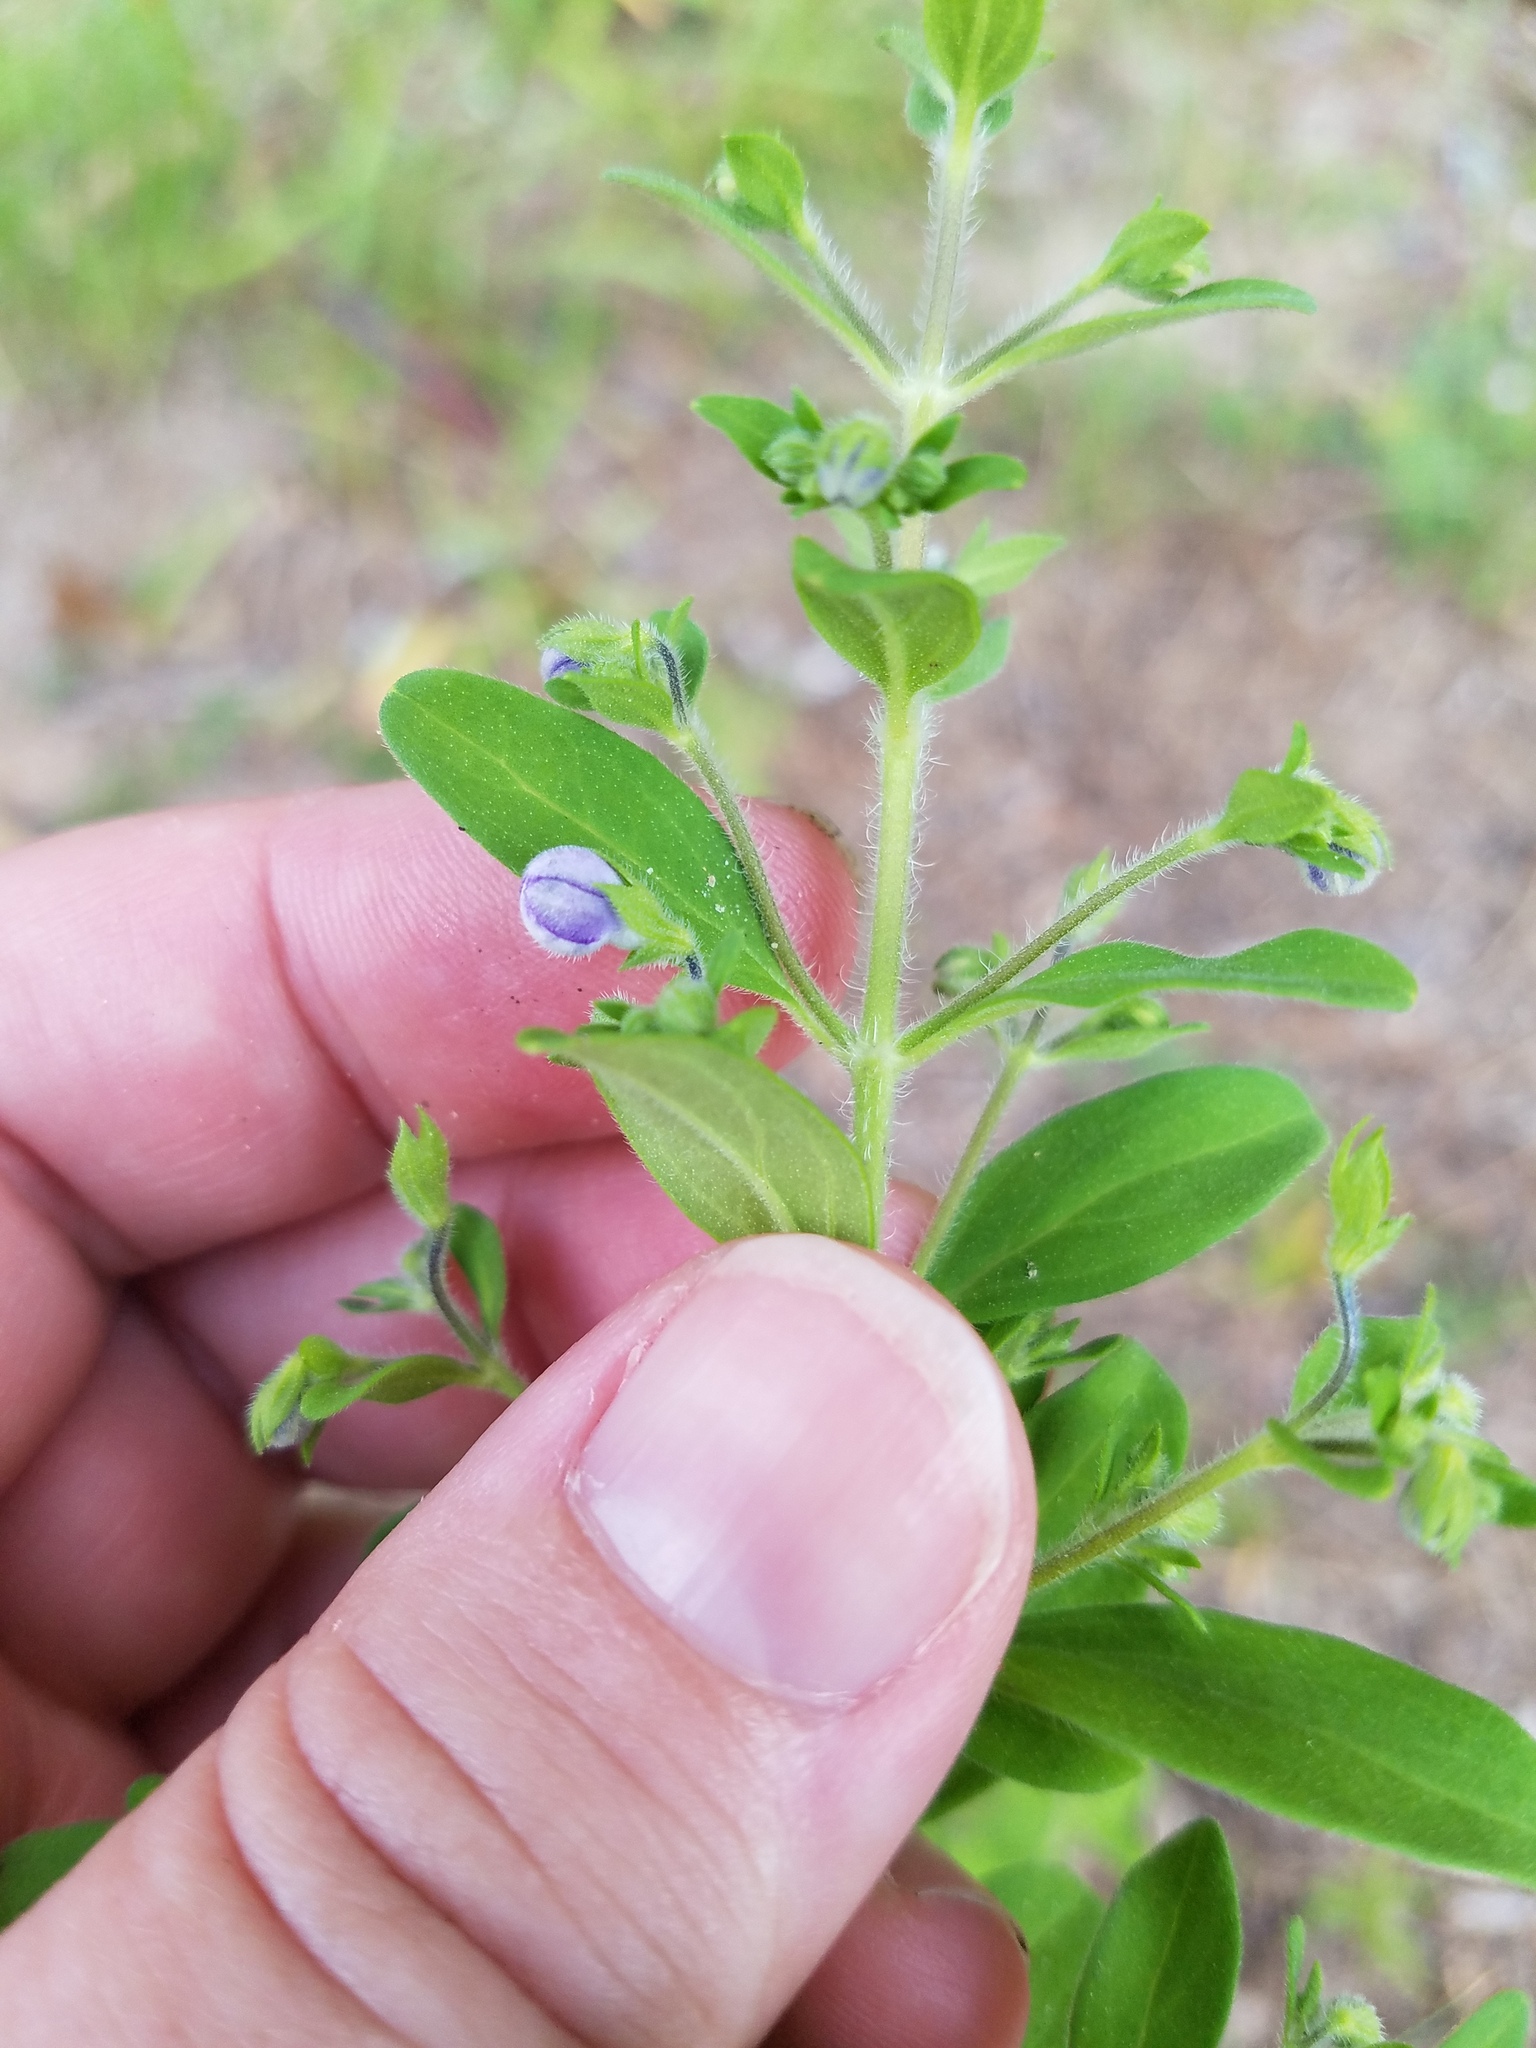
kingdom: Plantae
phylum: Tracheophyta
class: Magnoliopsida
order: Lamiales
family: Lamiaceae
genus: Trichostema
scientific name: Trichostema dichotomum
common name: Bastard pennyroyal
